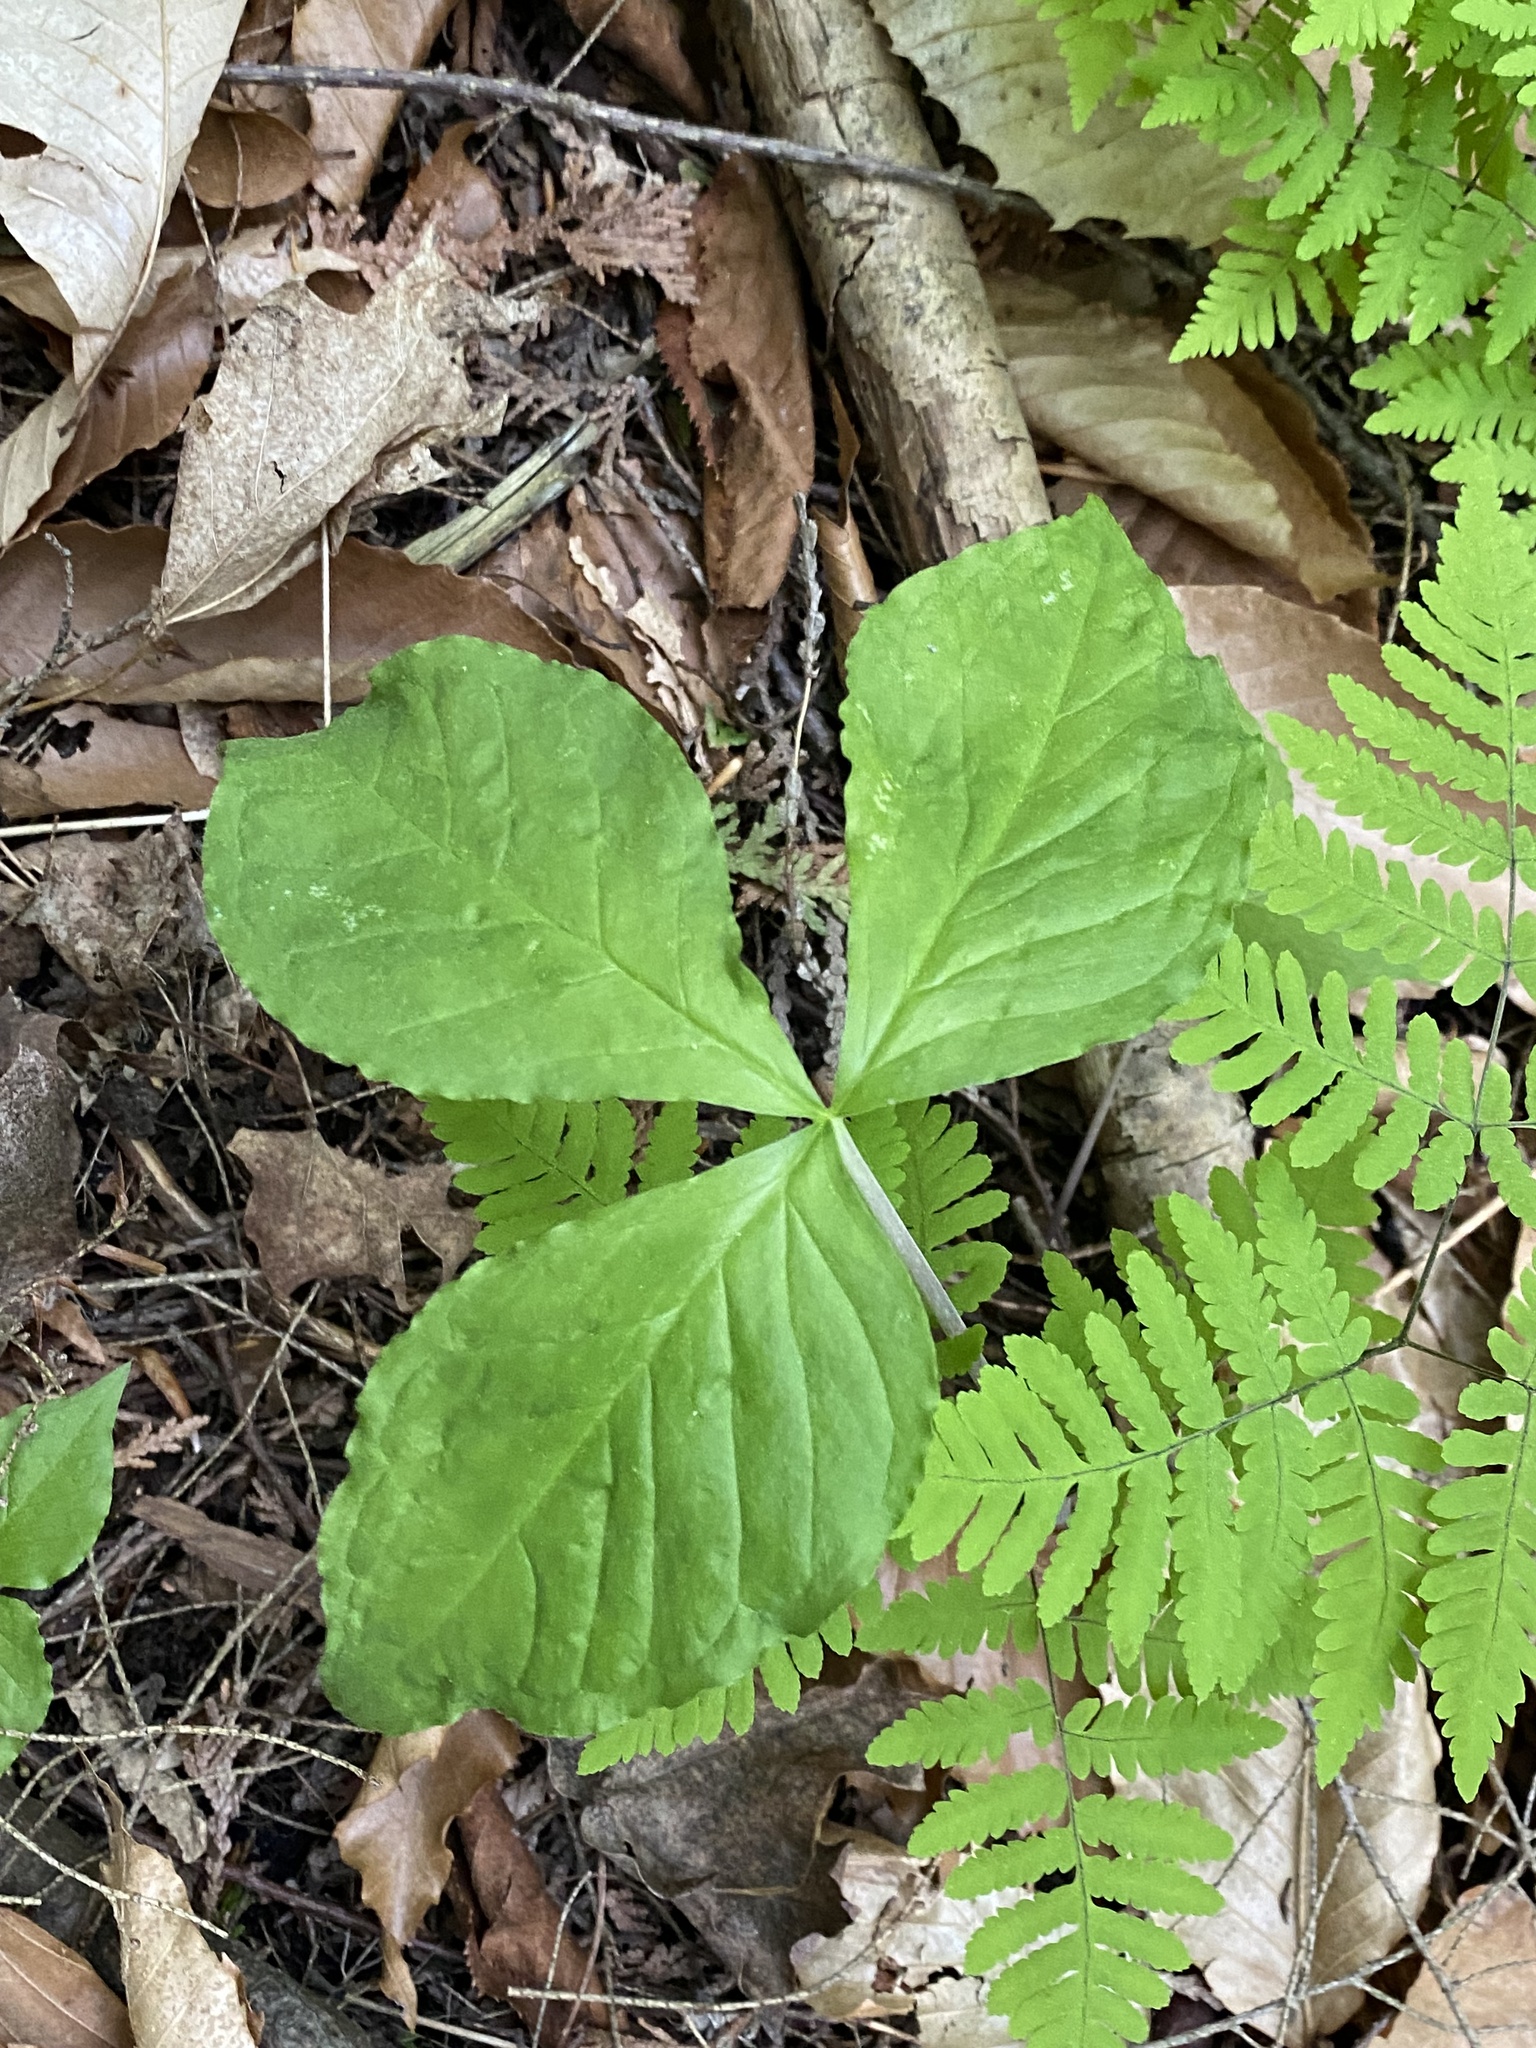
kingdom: Plantae
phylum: Tracheophyta
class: Liliopsida
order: Alismatales
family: Araceae
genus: Arisaema
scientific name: Arisaema triphyllum
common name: Jack-in-the-pulpit
